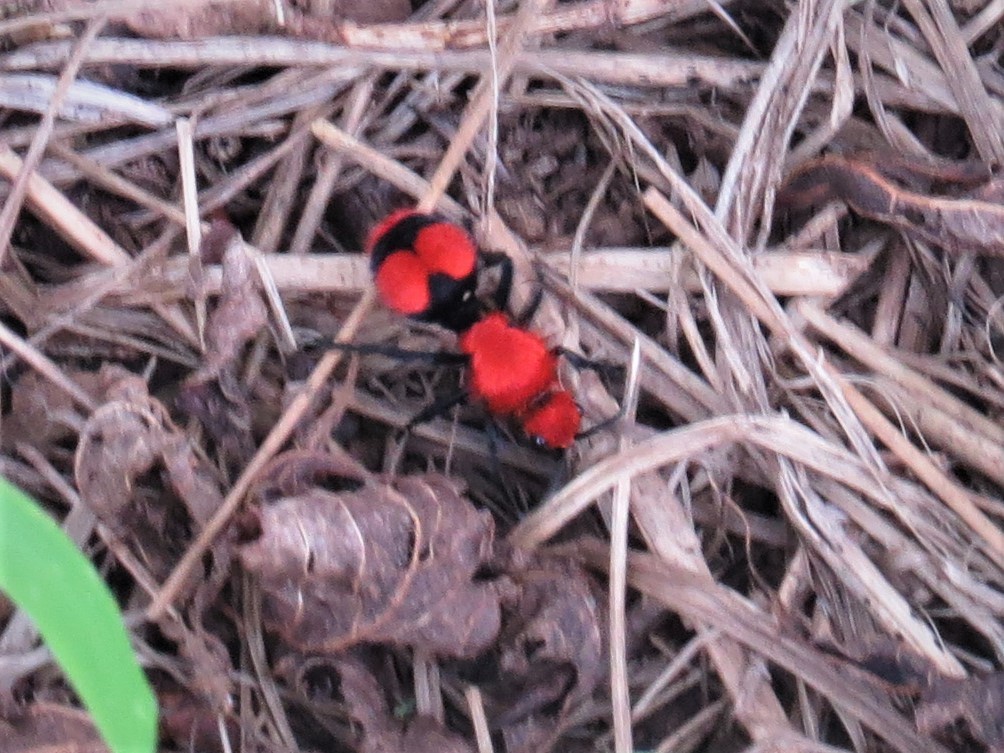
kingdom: Animalia
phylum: Arthropoda
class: Insecta
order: Hymenoptera
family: Mutillidae
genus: Dasymutilla
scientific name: Dasymutilla occidentalis
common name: Common eastern velvet ant
